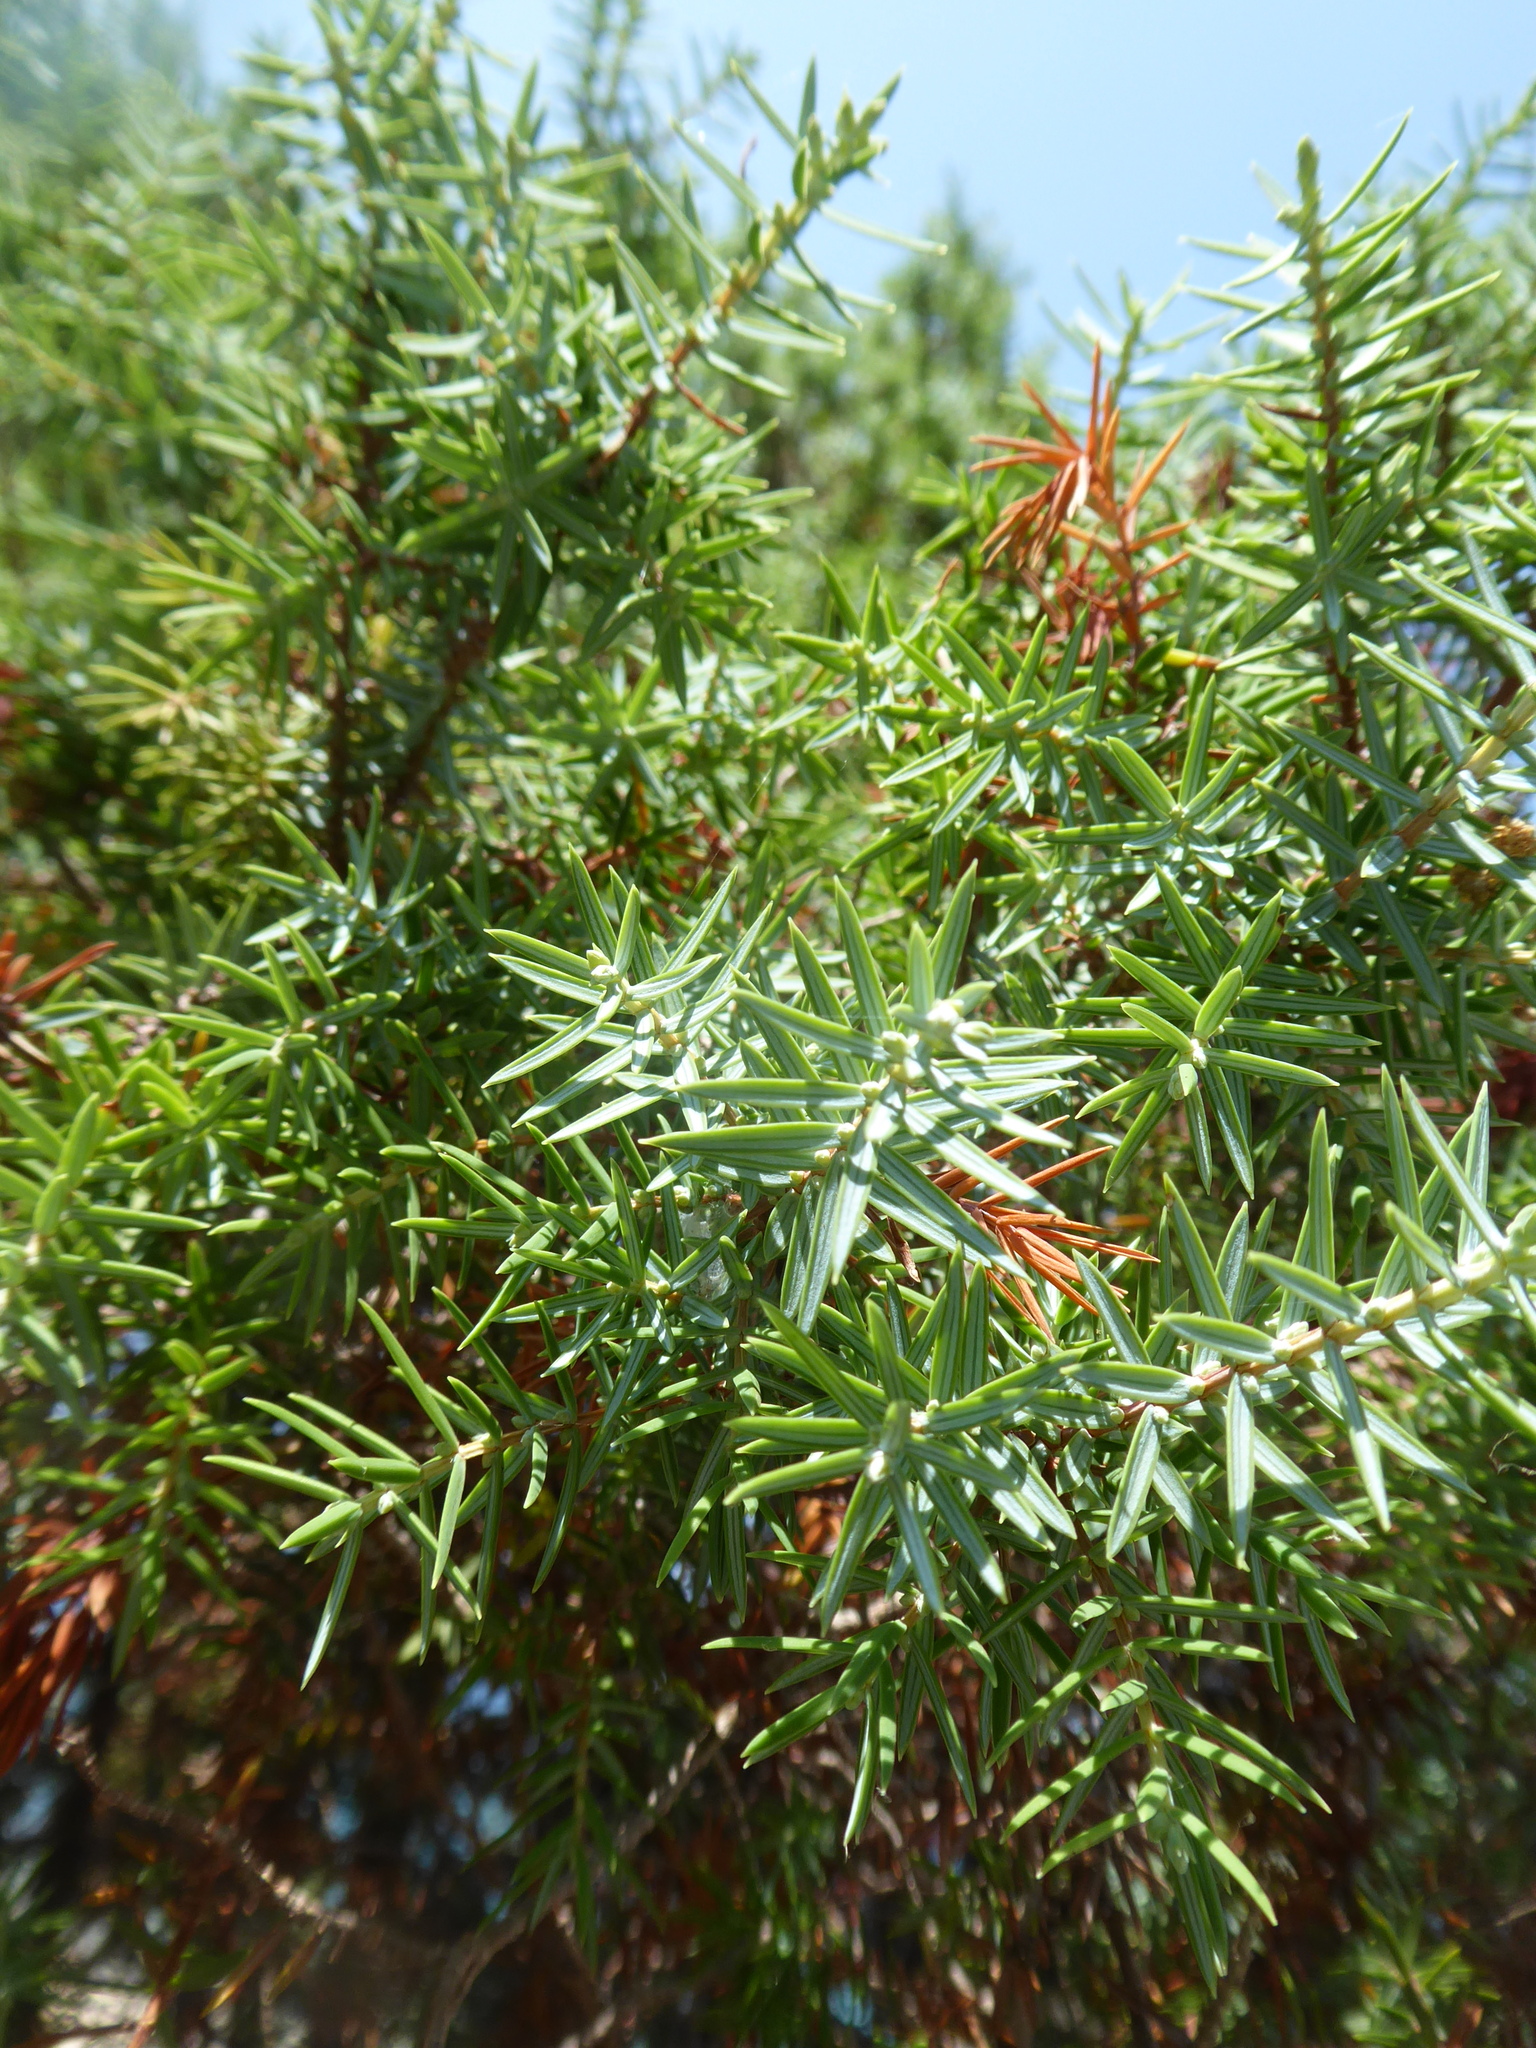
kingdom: Plantae
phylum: Tracheophyta
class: Pinopsida
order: Pinales
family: Cupressaceae
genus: Juniperus
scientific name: Juniperus oxycedrus
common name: Prickly juniper
